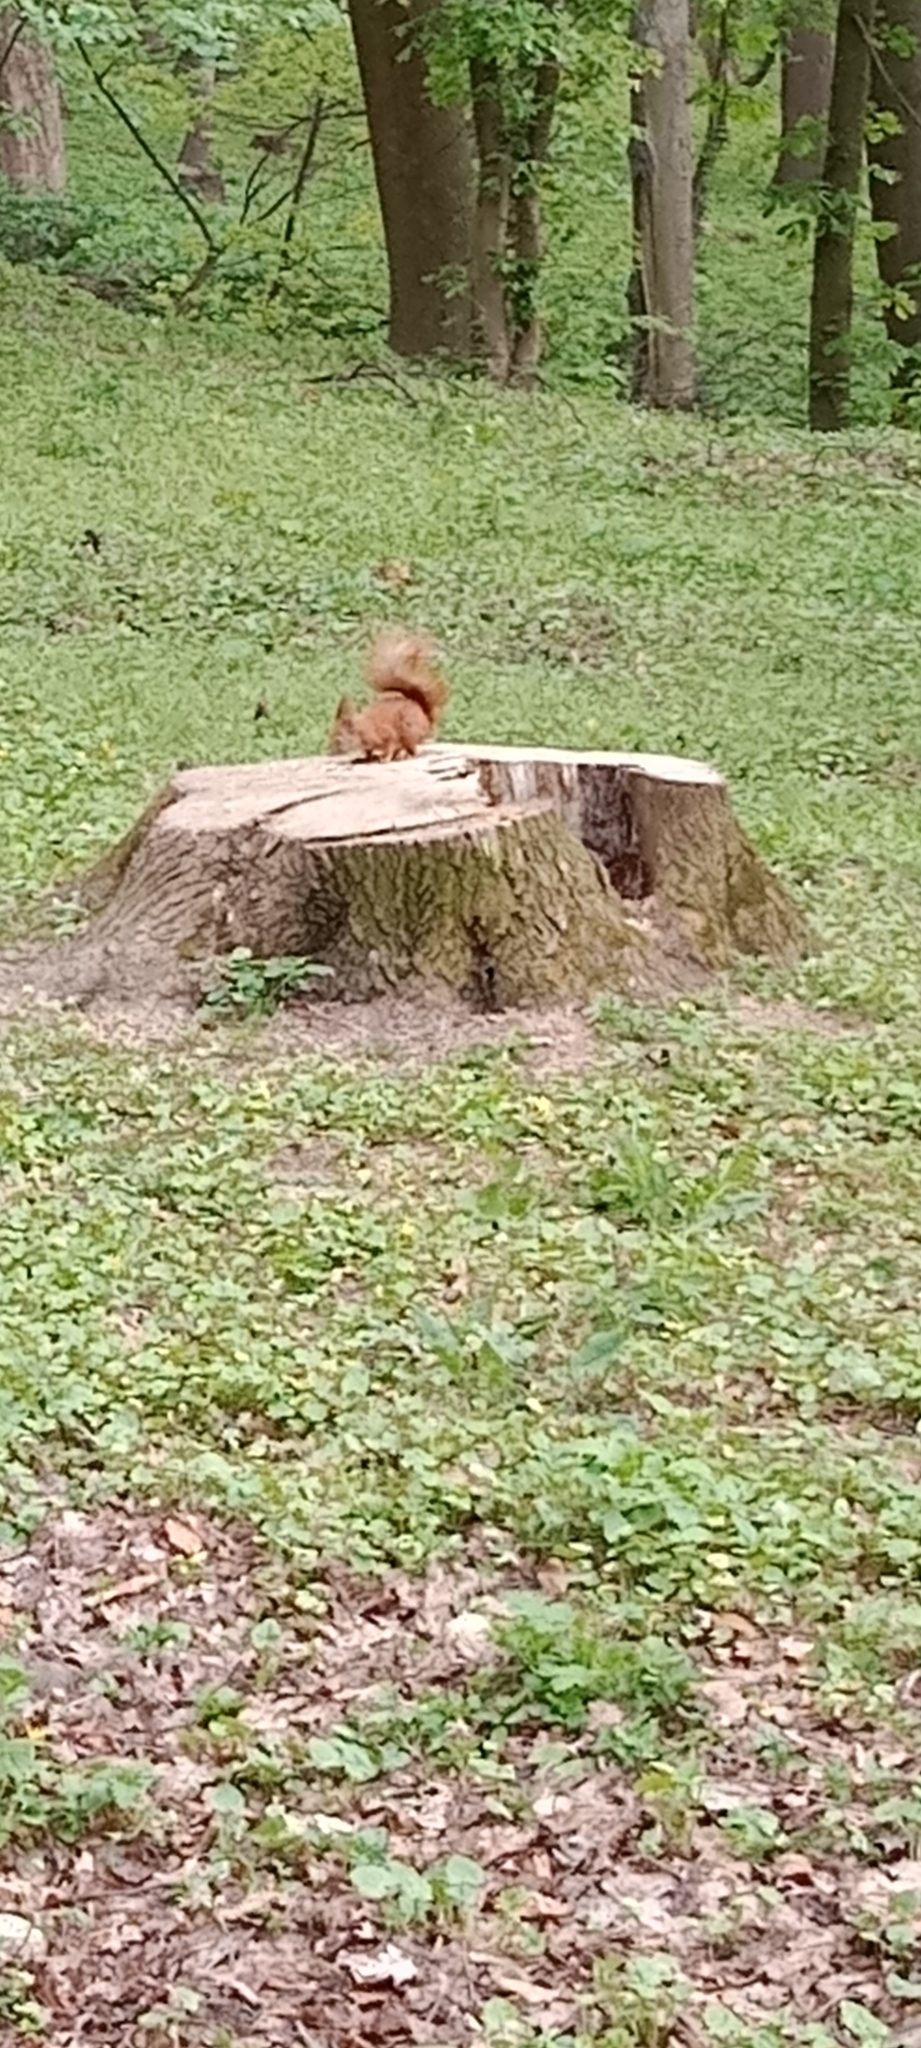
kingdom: Animalia
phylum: Chordata
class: Mammalia
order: Rodentia
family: Sciuridae
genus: Sciurus
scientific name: Sciurus vulgaris
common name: Eurasian red squirrel
